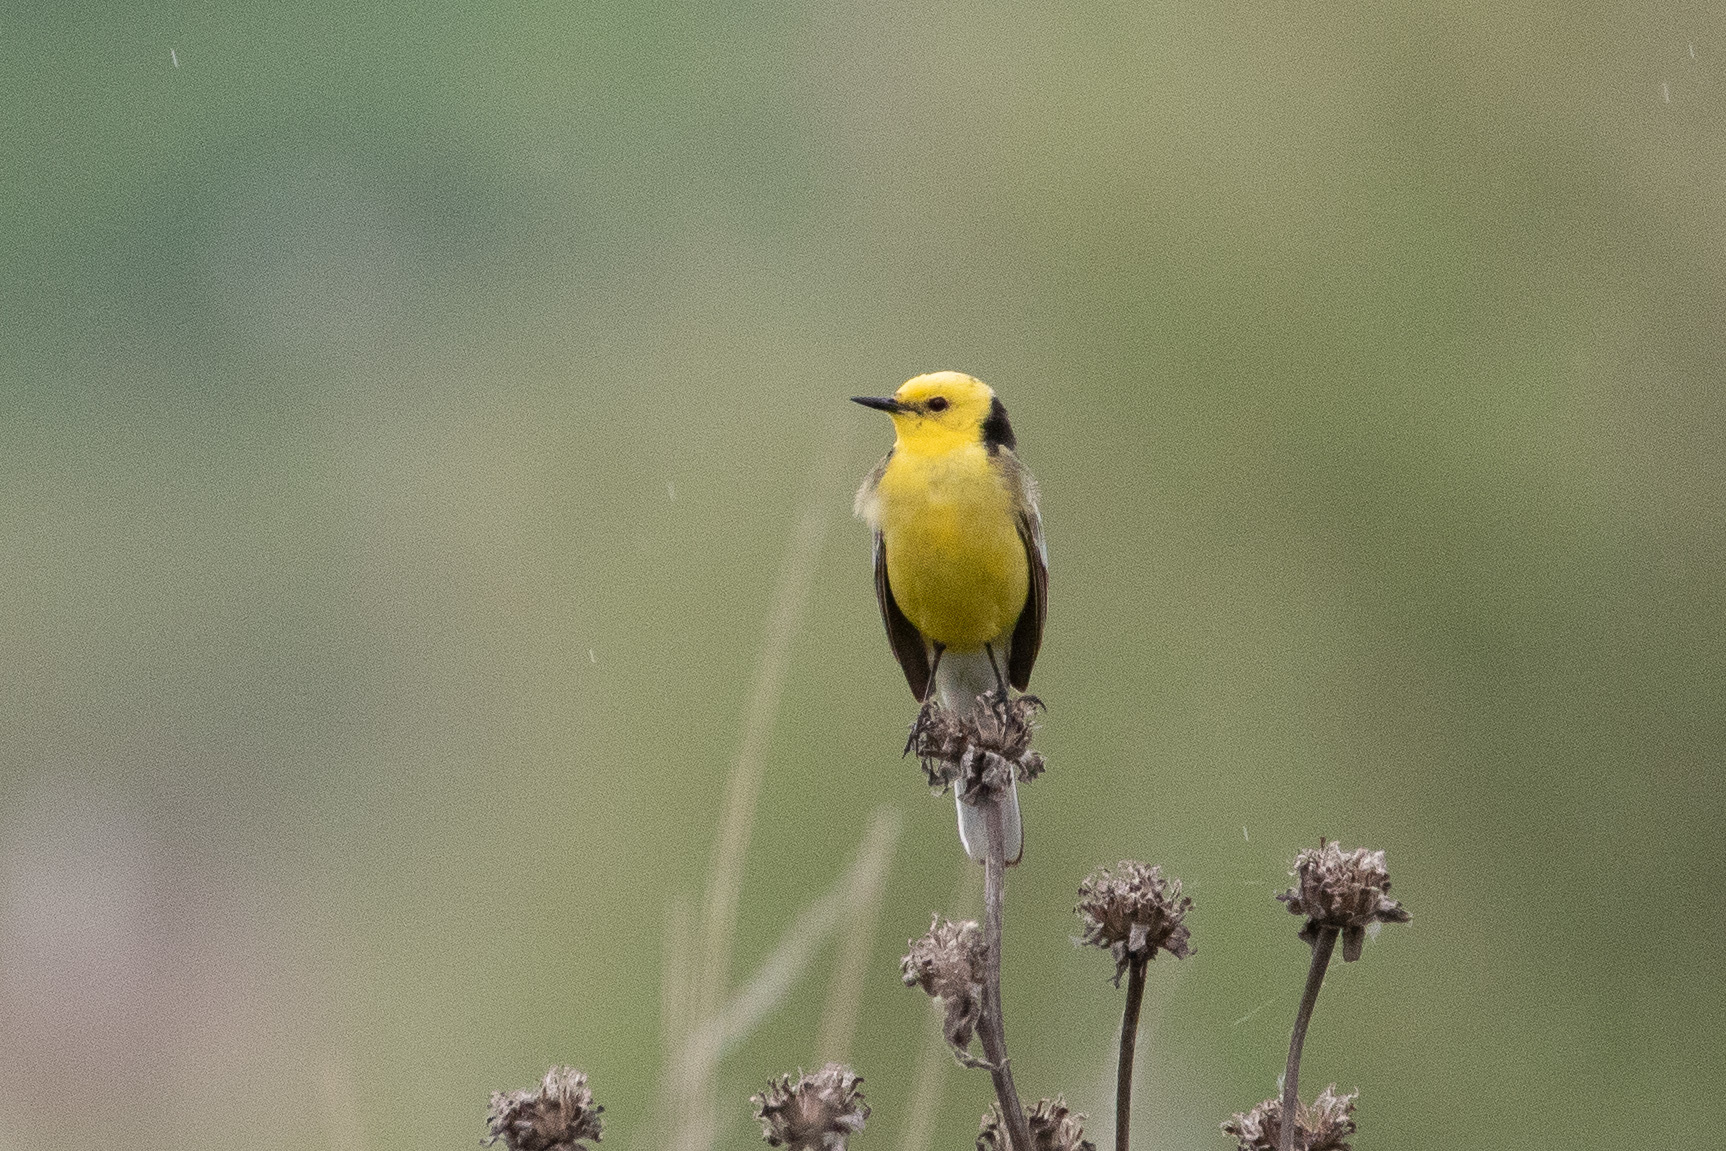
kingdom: Animalia
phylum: Chordata
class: Aves
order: Passeriformes
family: Motacillidae
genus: Motacilla
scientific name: Motacilla citreola
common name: Citrine wagtail
